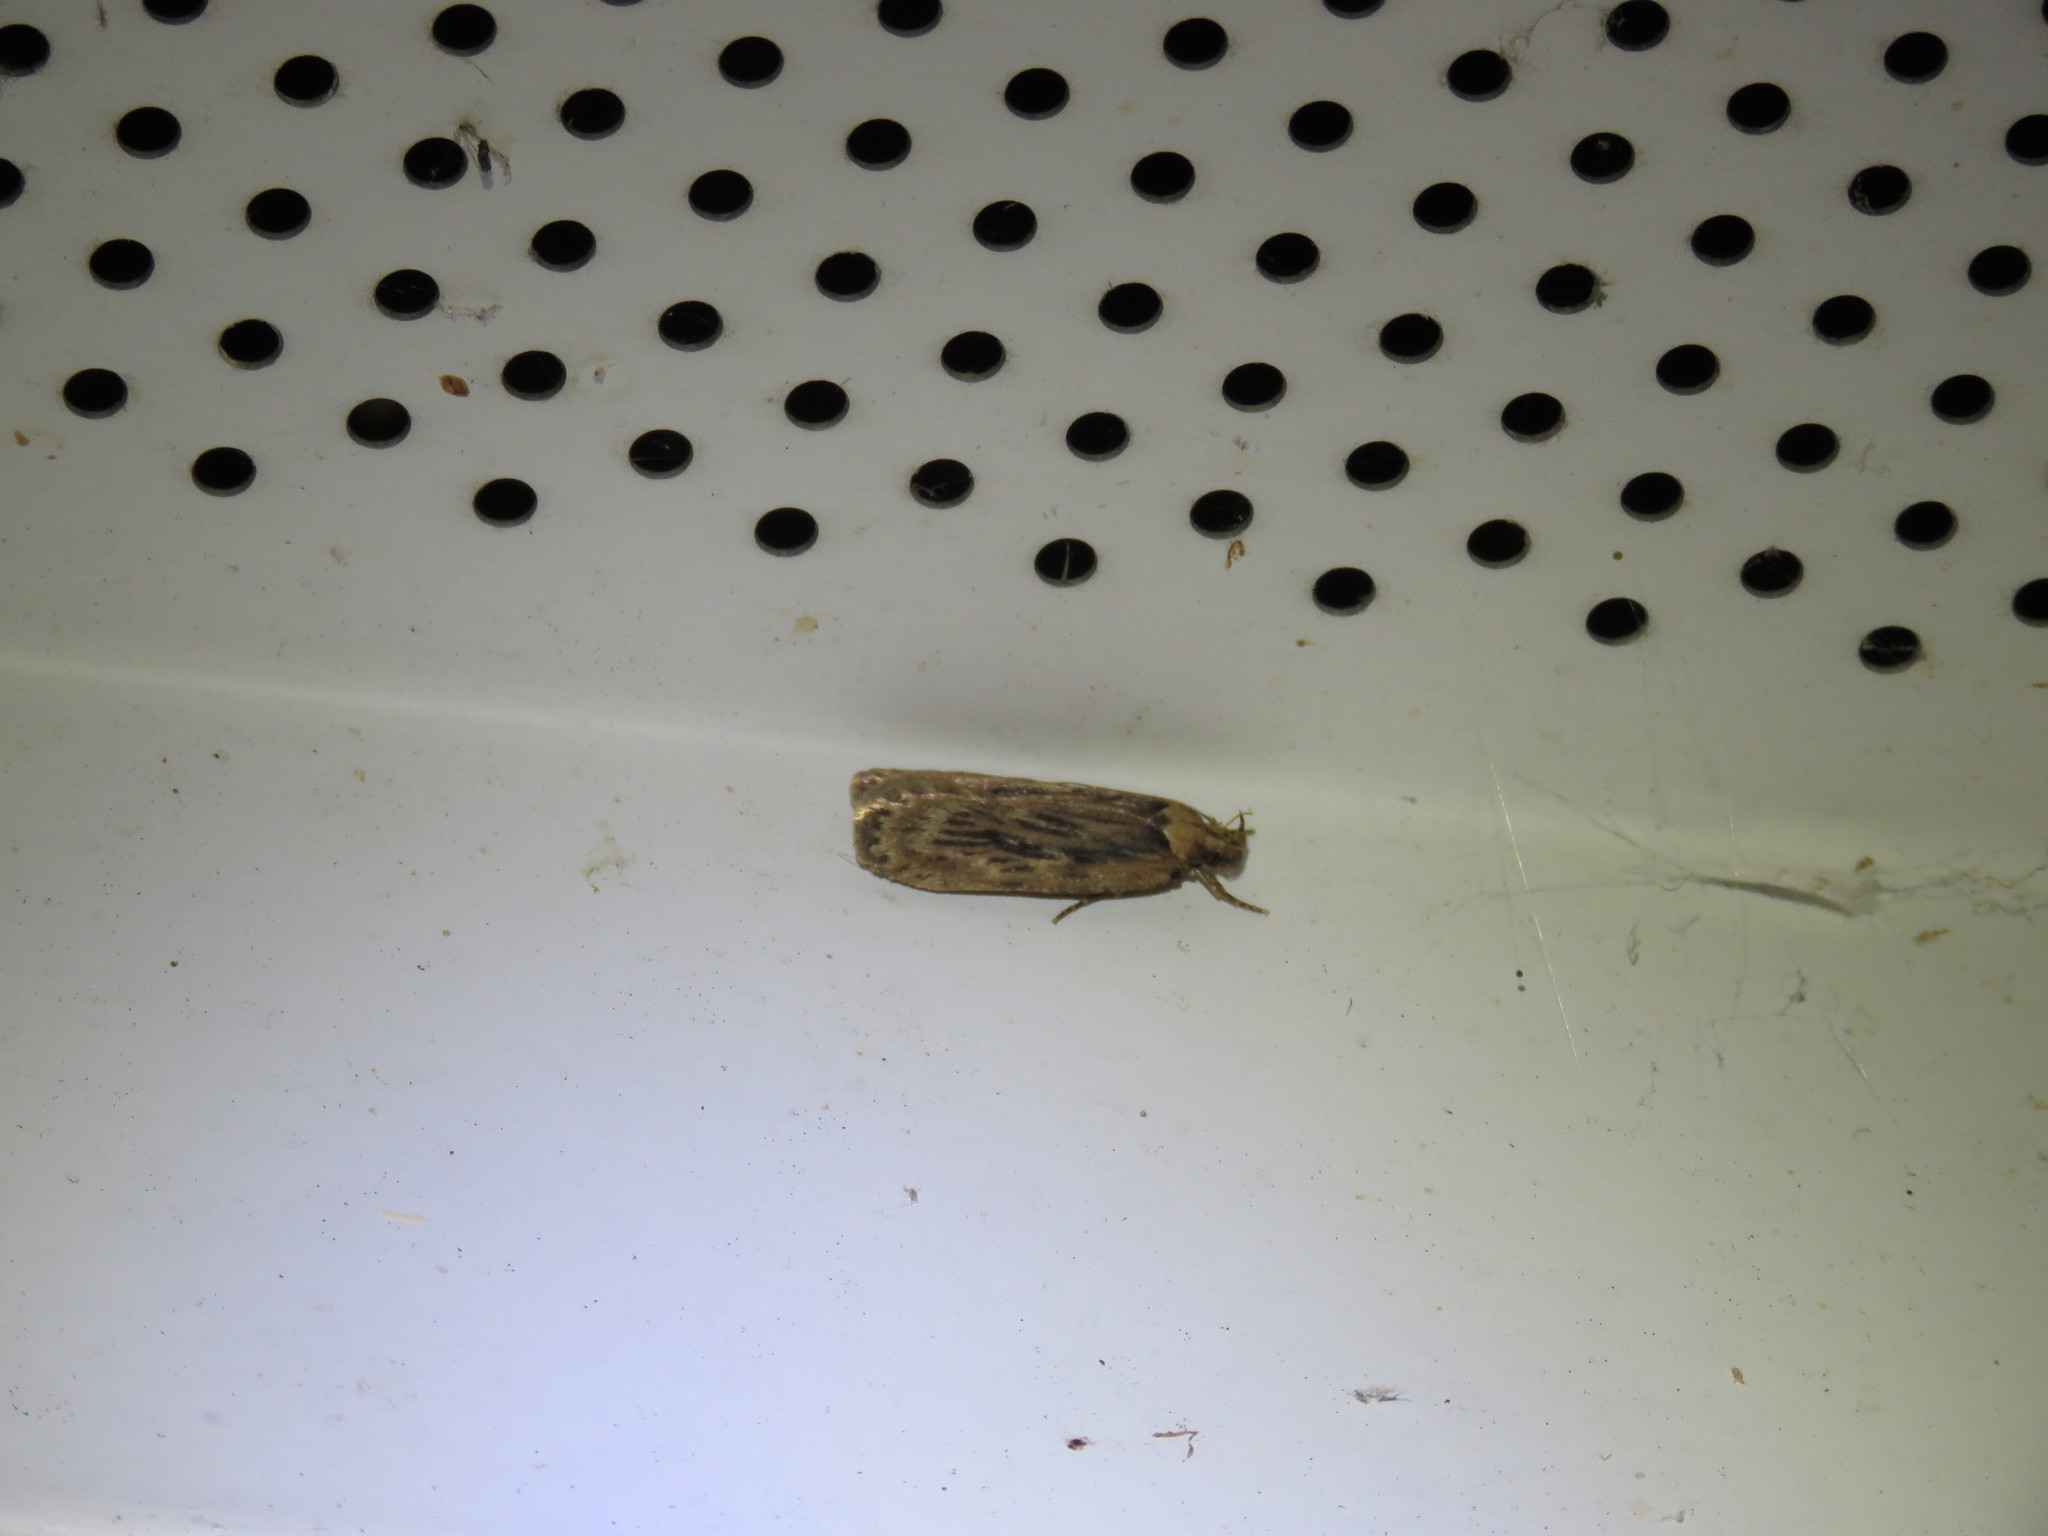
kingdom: Animalia
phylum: Arthropoda
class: Insecta
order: Lepidoptera
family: Depressariidae
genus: Depressaria
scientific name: Depressaria radiella
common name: Parsnip moth
